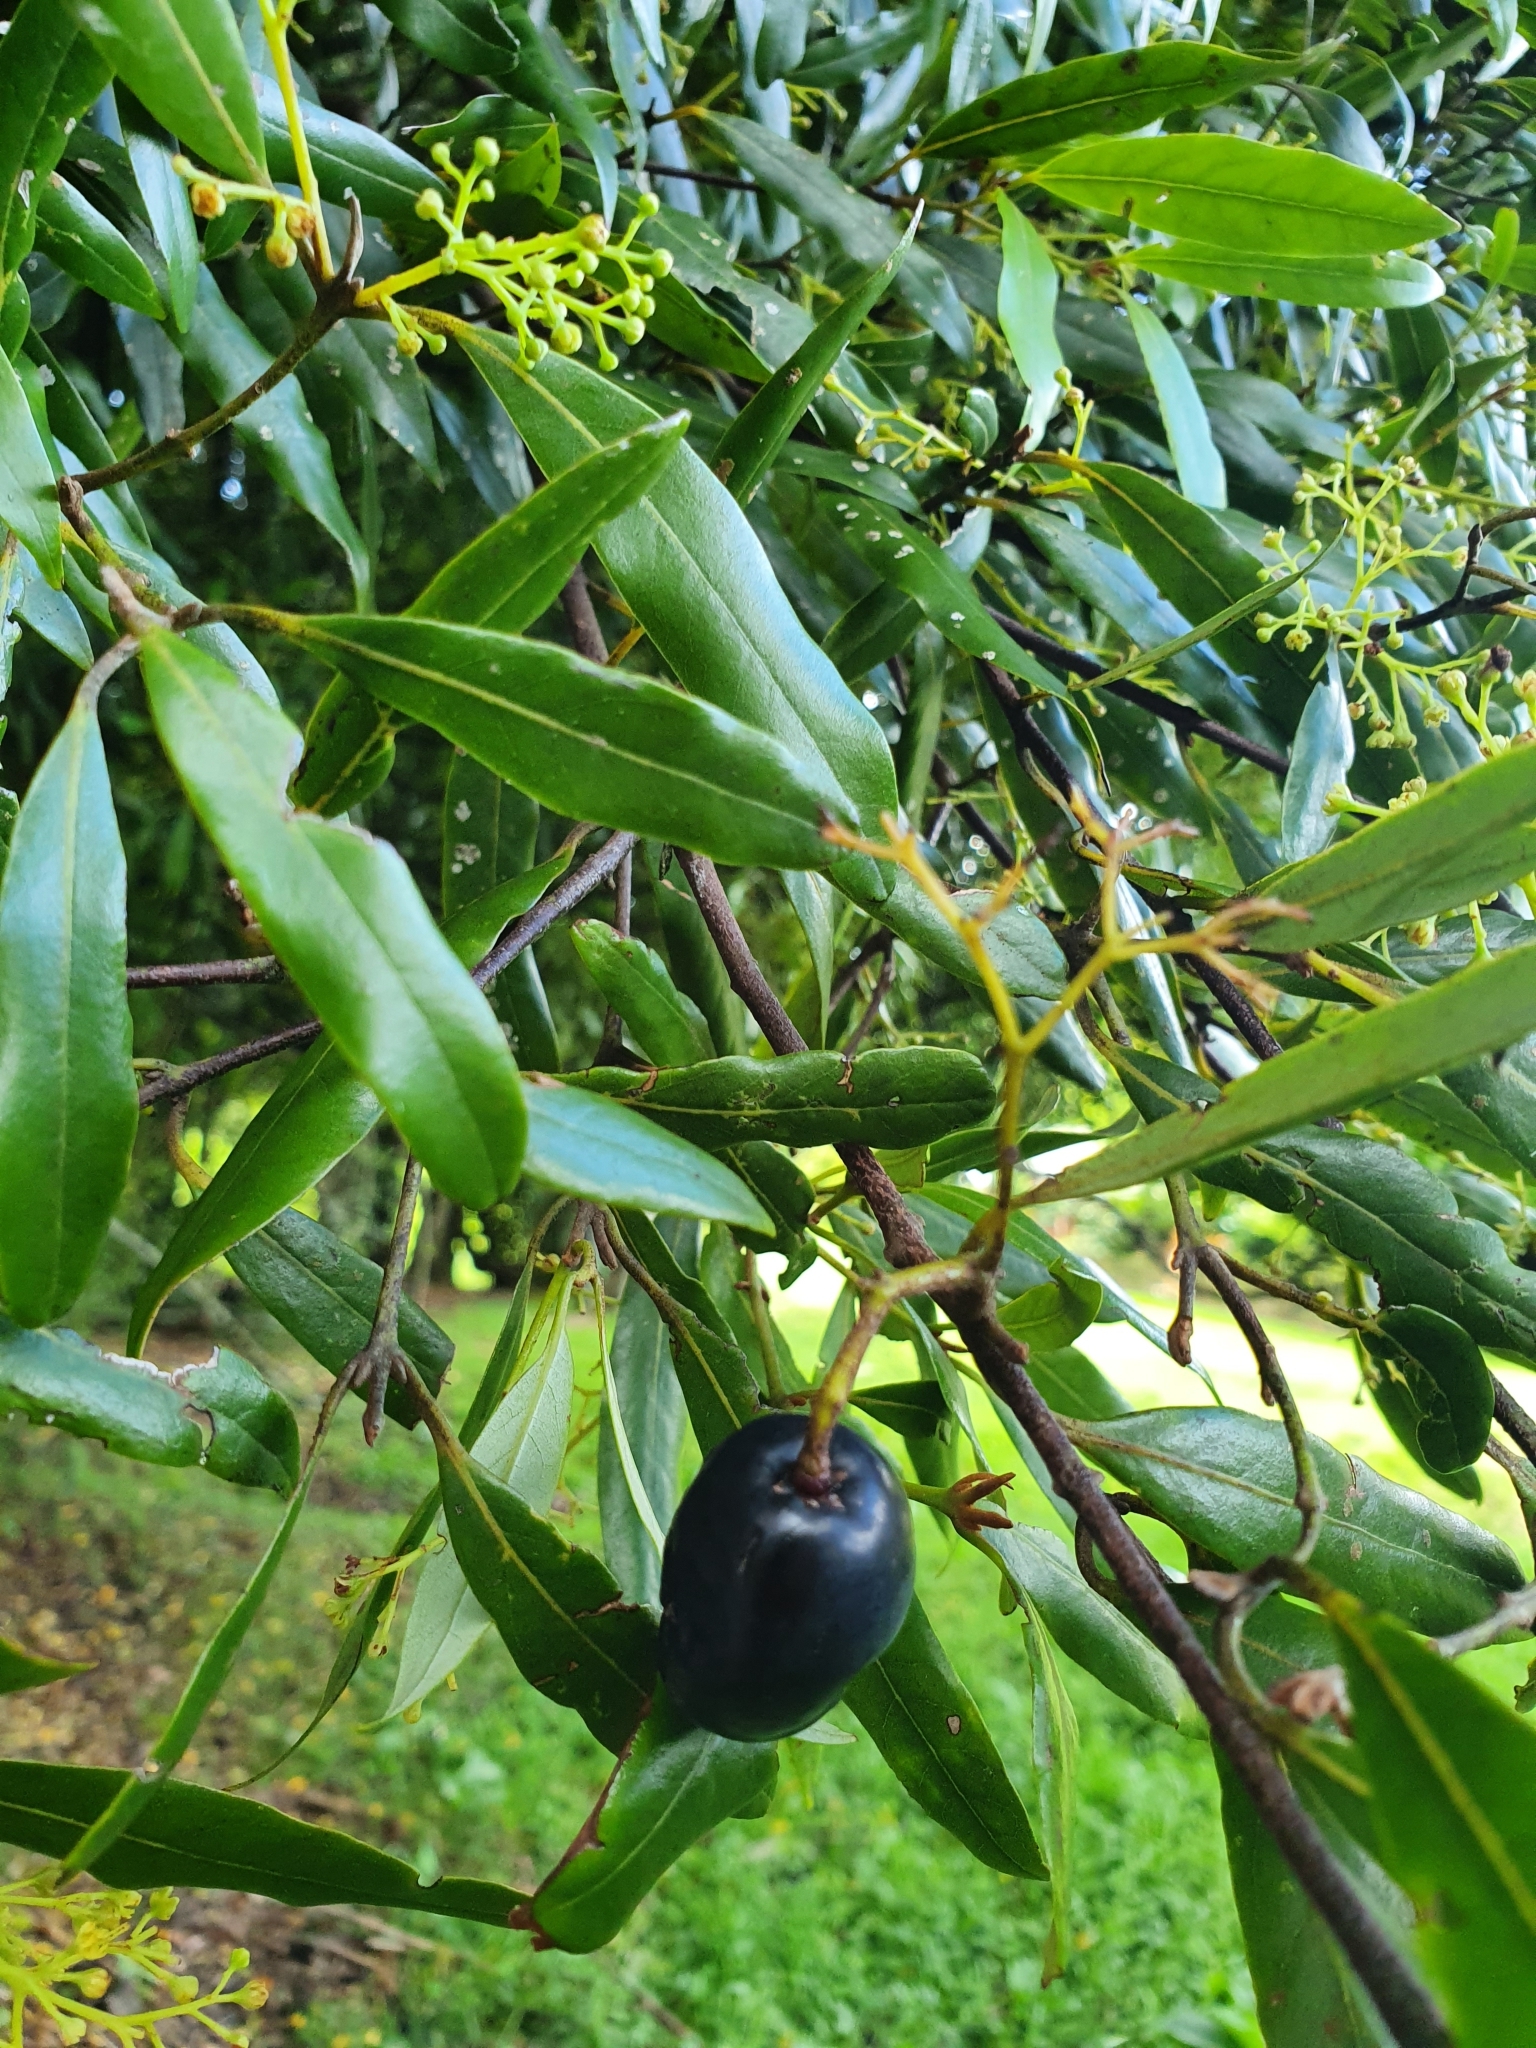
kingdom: Plantae
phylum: Tracheophyta
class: Magnoliopsida
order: Laurales
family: Lauraceae
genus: Beilschmiedia
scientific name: Beilschmiedia tawa
